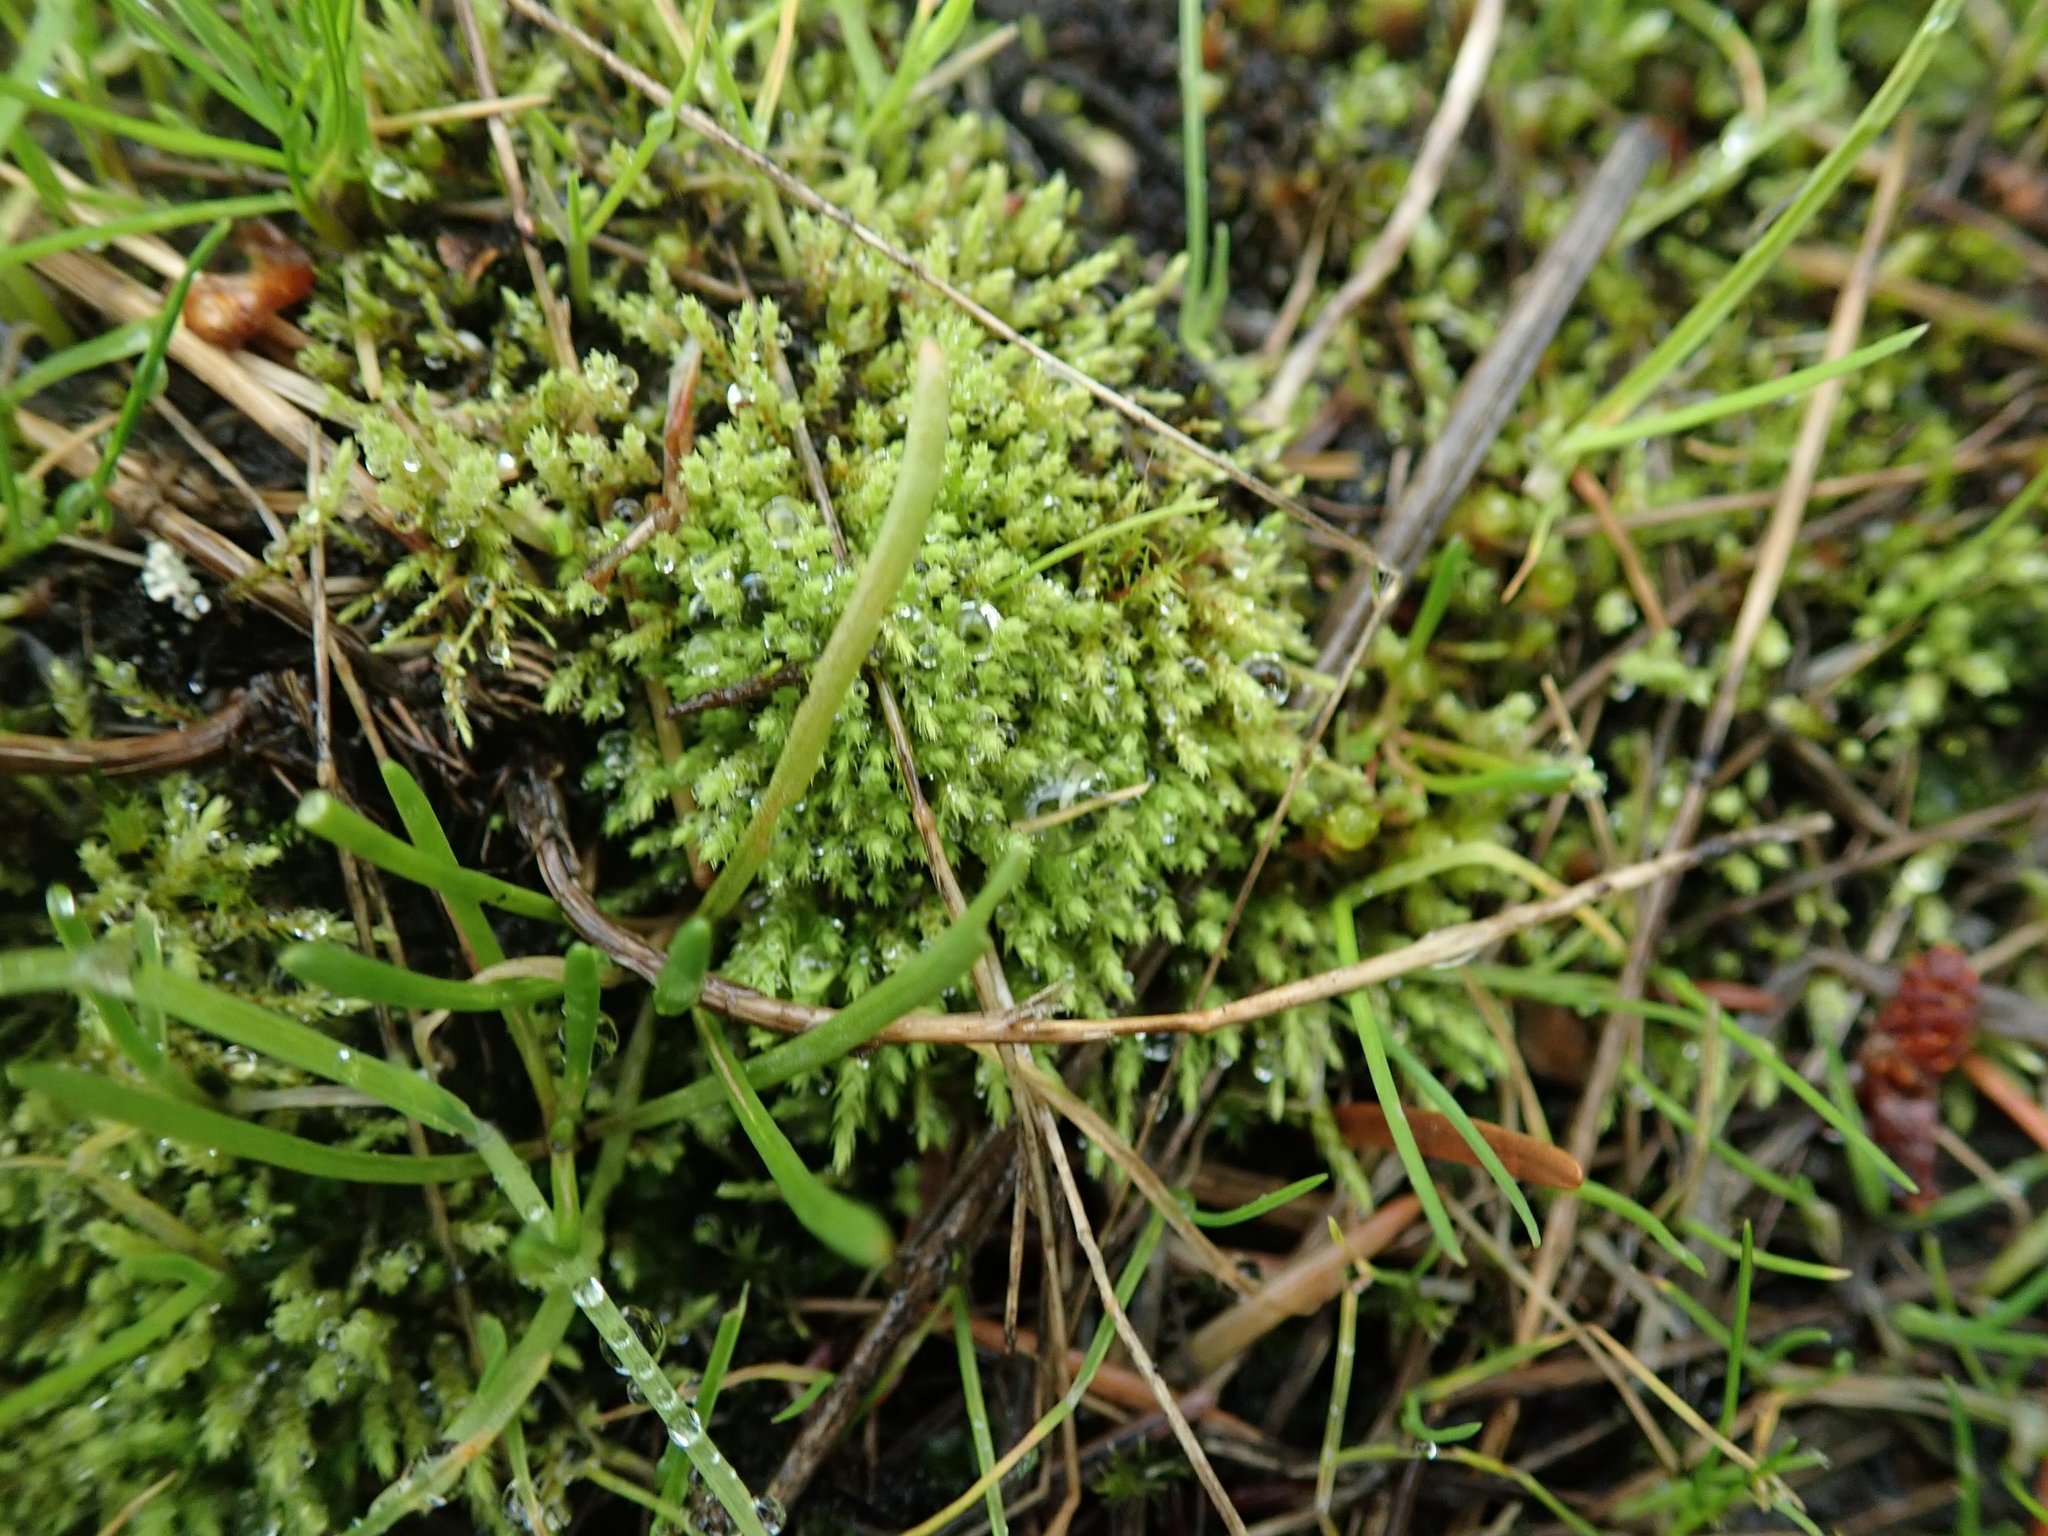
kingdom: Plantae
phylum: Bryophyta
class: Bryopsida
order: Bartramiales
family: Bartramiaceae
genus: Philonotis
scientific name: Philonotis capillaris
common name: Arnell's apple-moss
